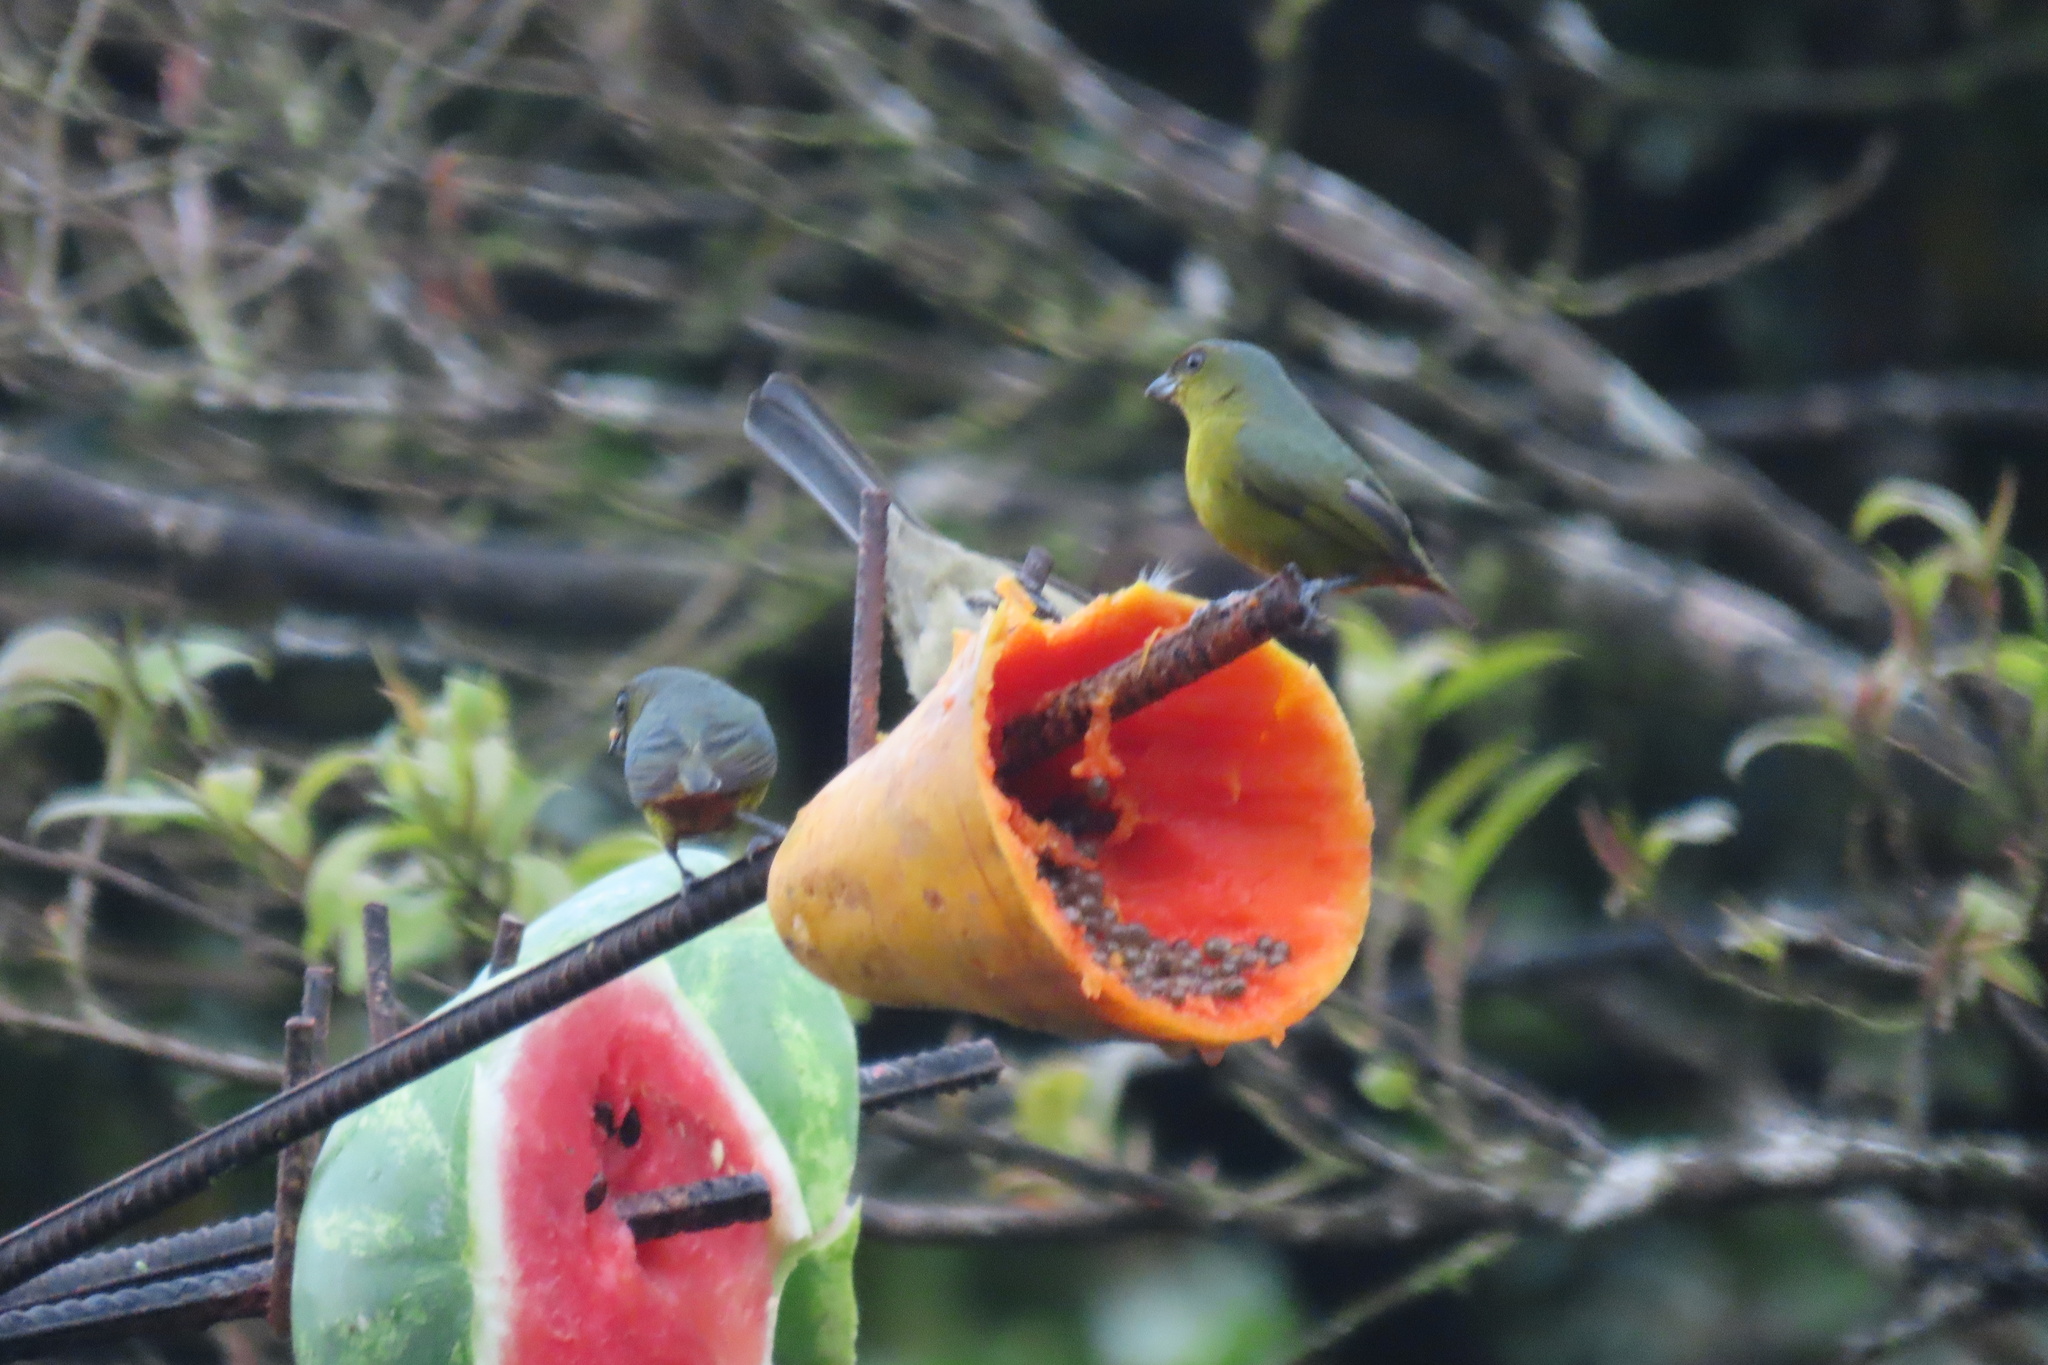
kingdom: Animalia
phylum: Chordata
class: Aves
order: Passeriformes
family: Fringillidae
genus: Euphonia
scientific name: Euphonia gouldi
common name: Olive-backed euphonia
